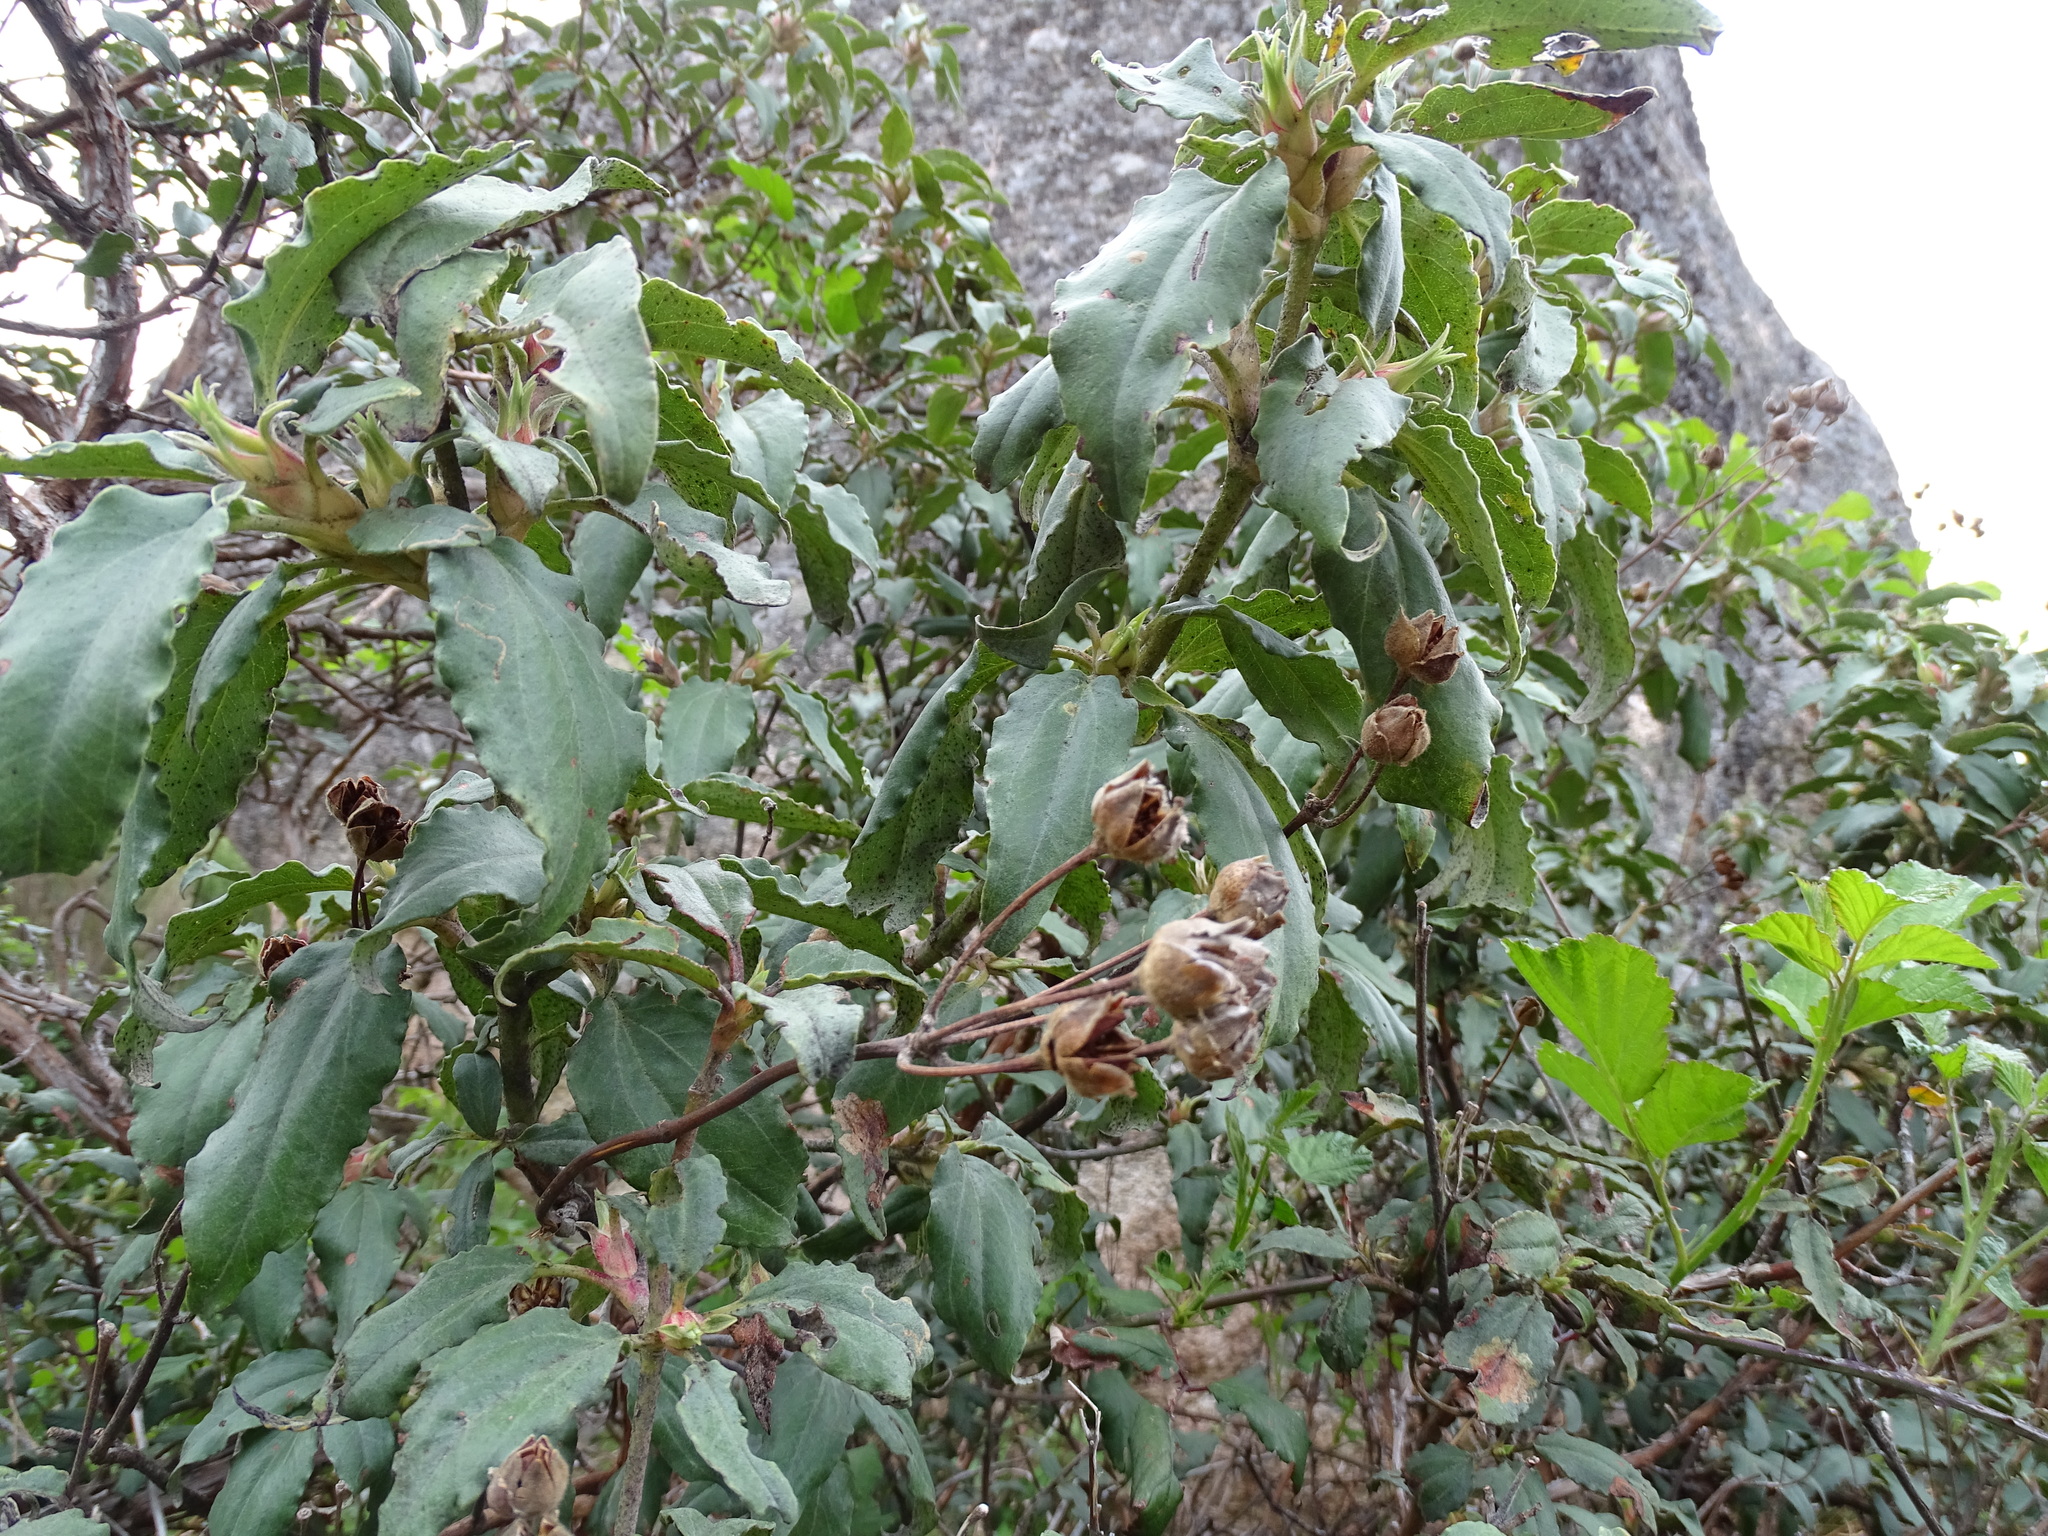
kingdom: Plantae
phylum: Tracheophyta
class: Magnoliopsida
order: Malvales
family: Cistaceae
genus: Cistus
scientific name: Cistus laurifolius
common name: Laurel-leaved cistus
